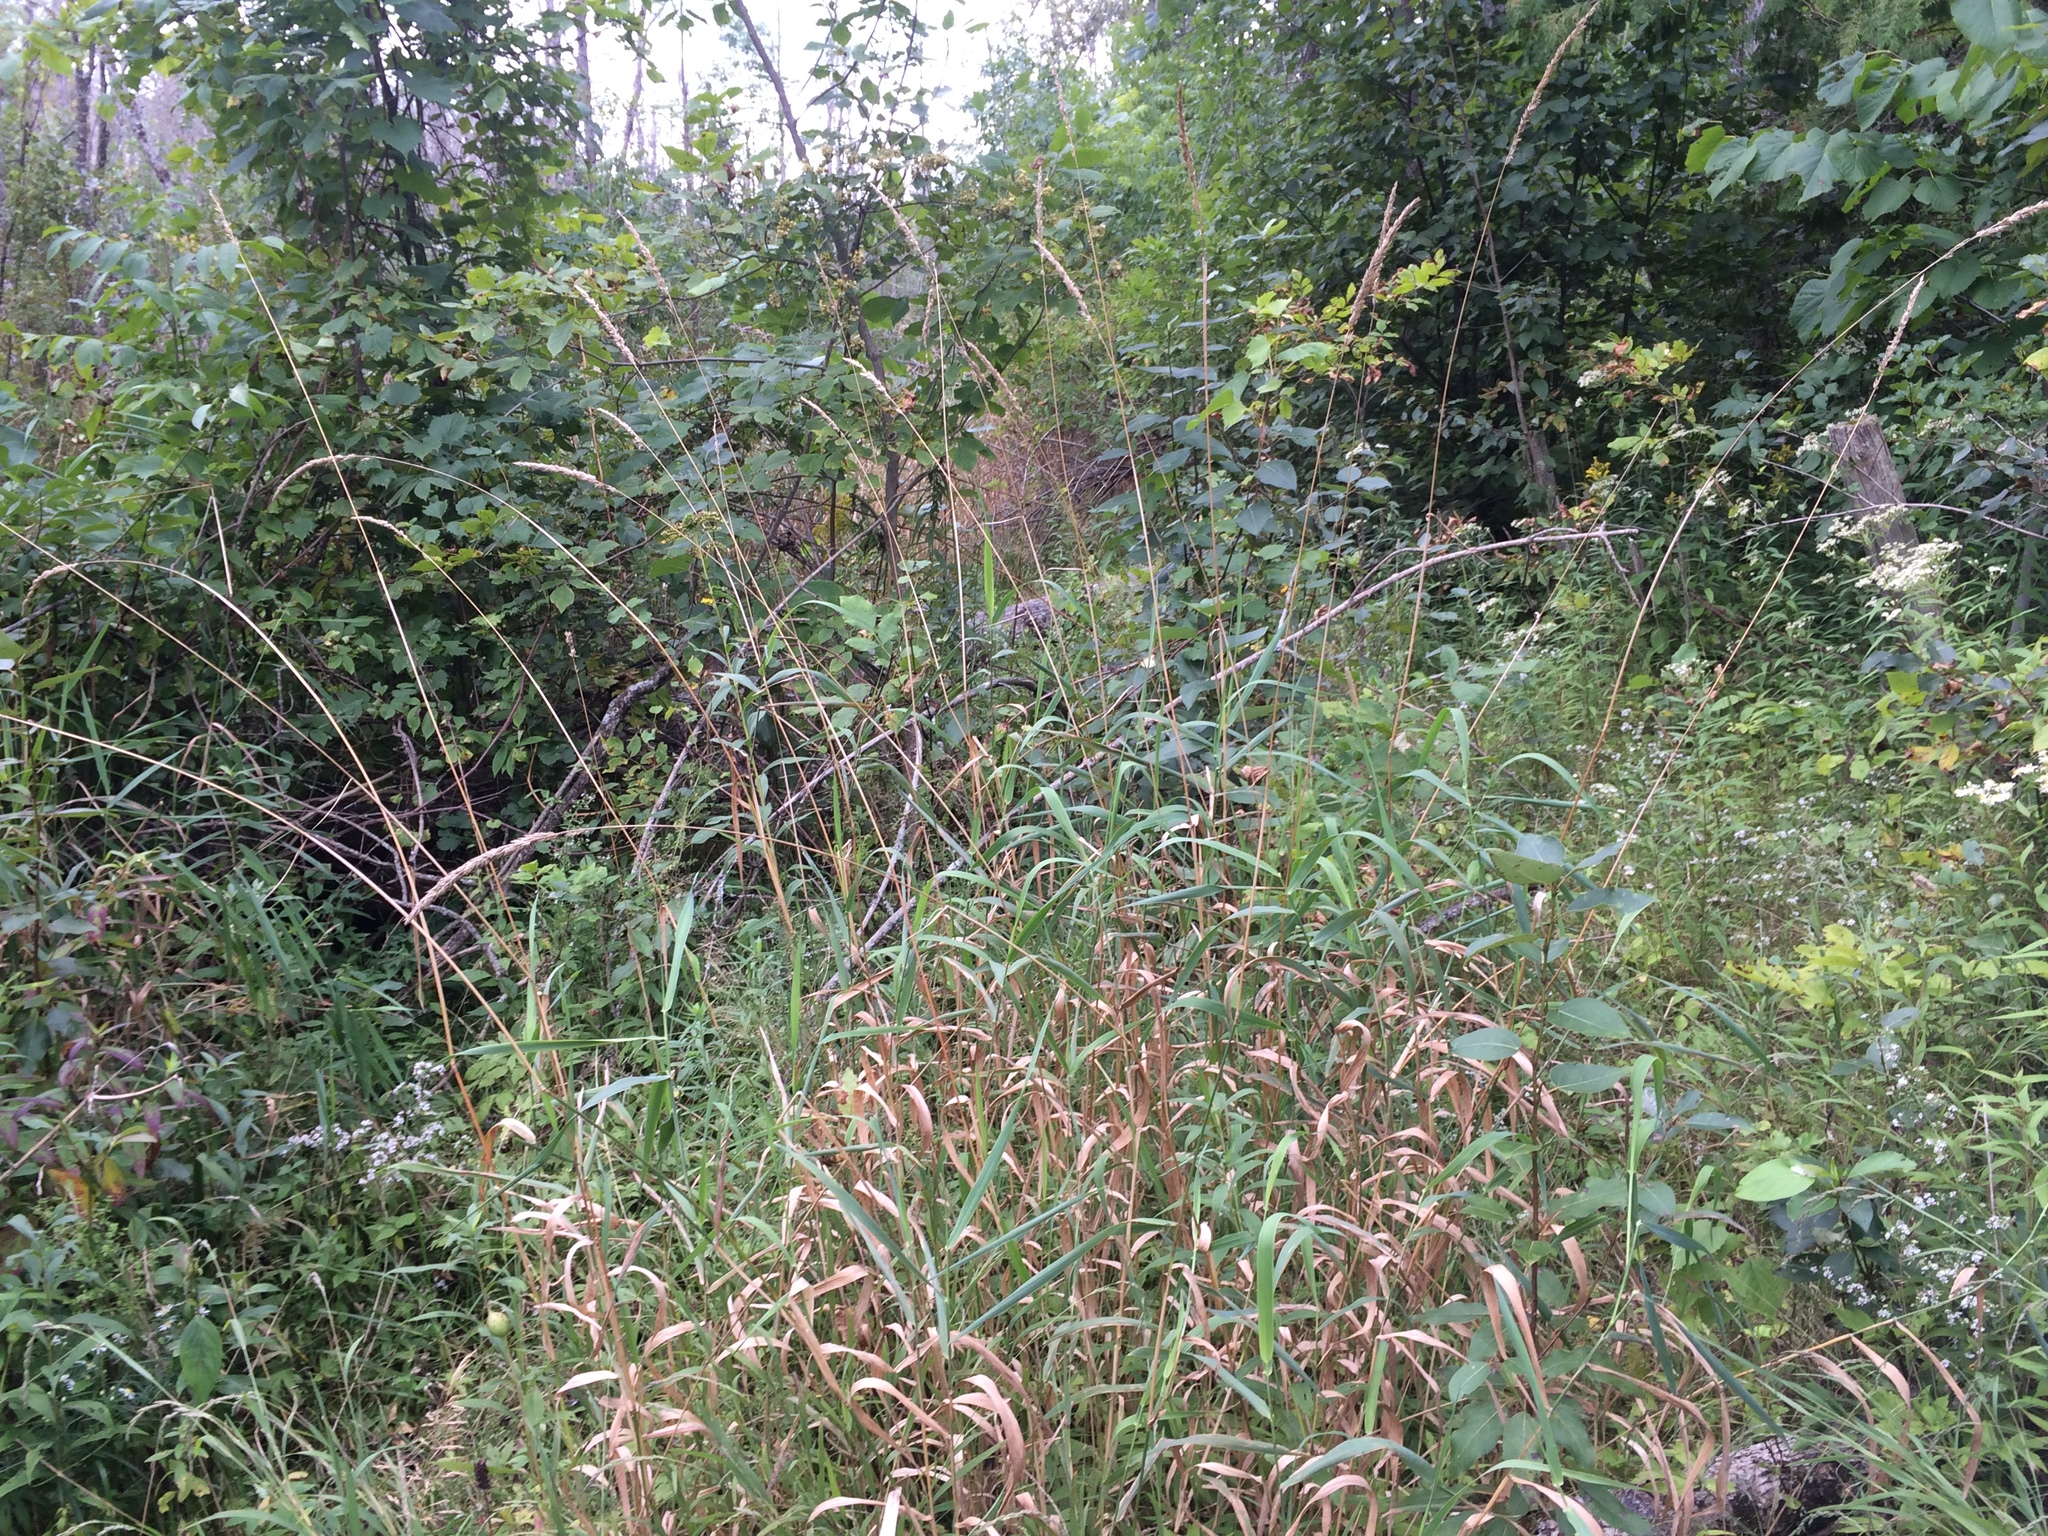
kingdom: Plantae
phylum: Tracheophyta
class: Liliopsida
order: Poales
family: Poaceae
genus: Phalaris
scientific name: Phalaris arundinacea
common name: Reed canary-grass
